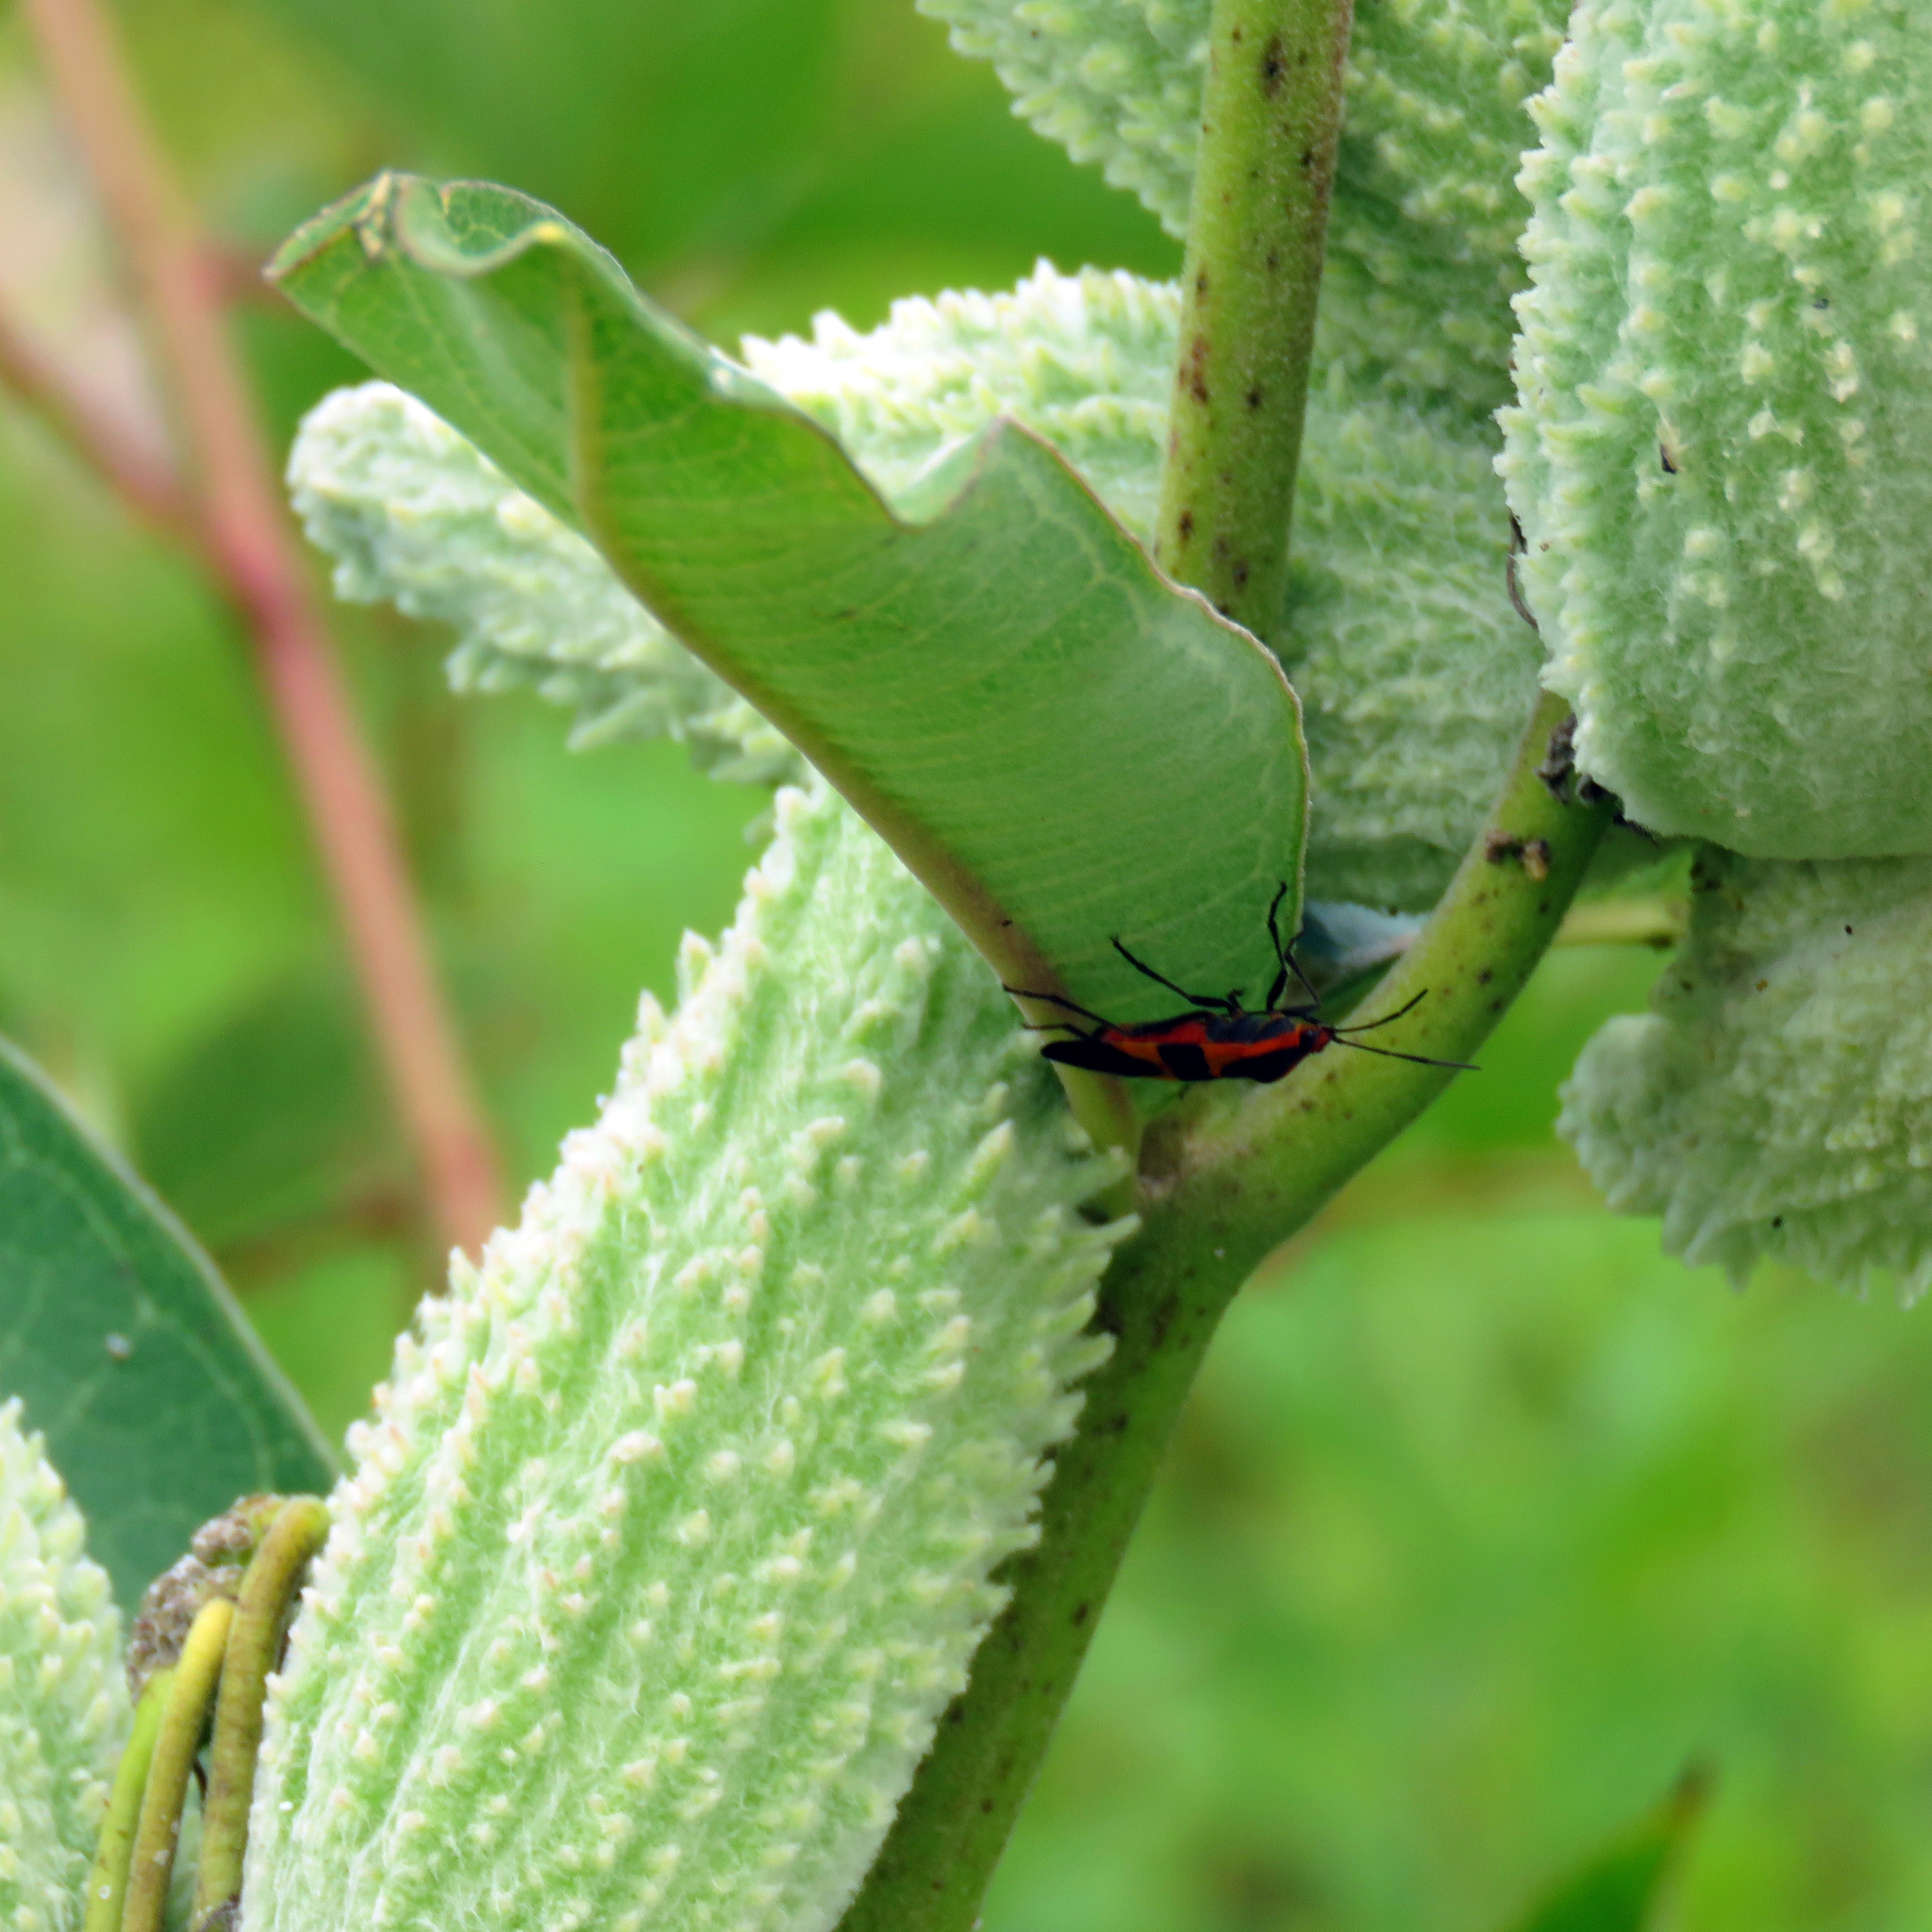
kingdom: Animalia
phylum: Arthropoda
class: Insecta
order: Hemiptera
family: Lygaeidae
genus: Oncopeltus
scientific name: Oncopeltus fasciatus
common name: Large milkweed bug
